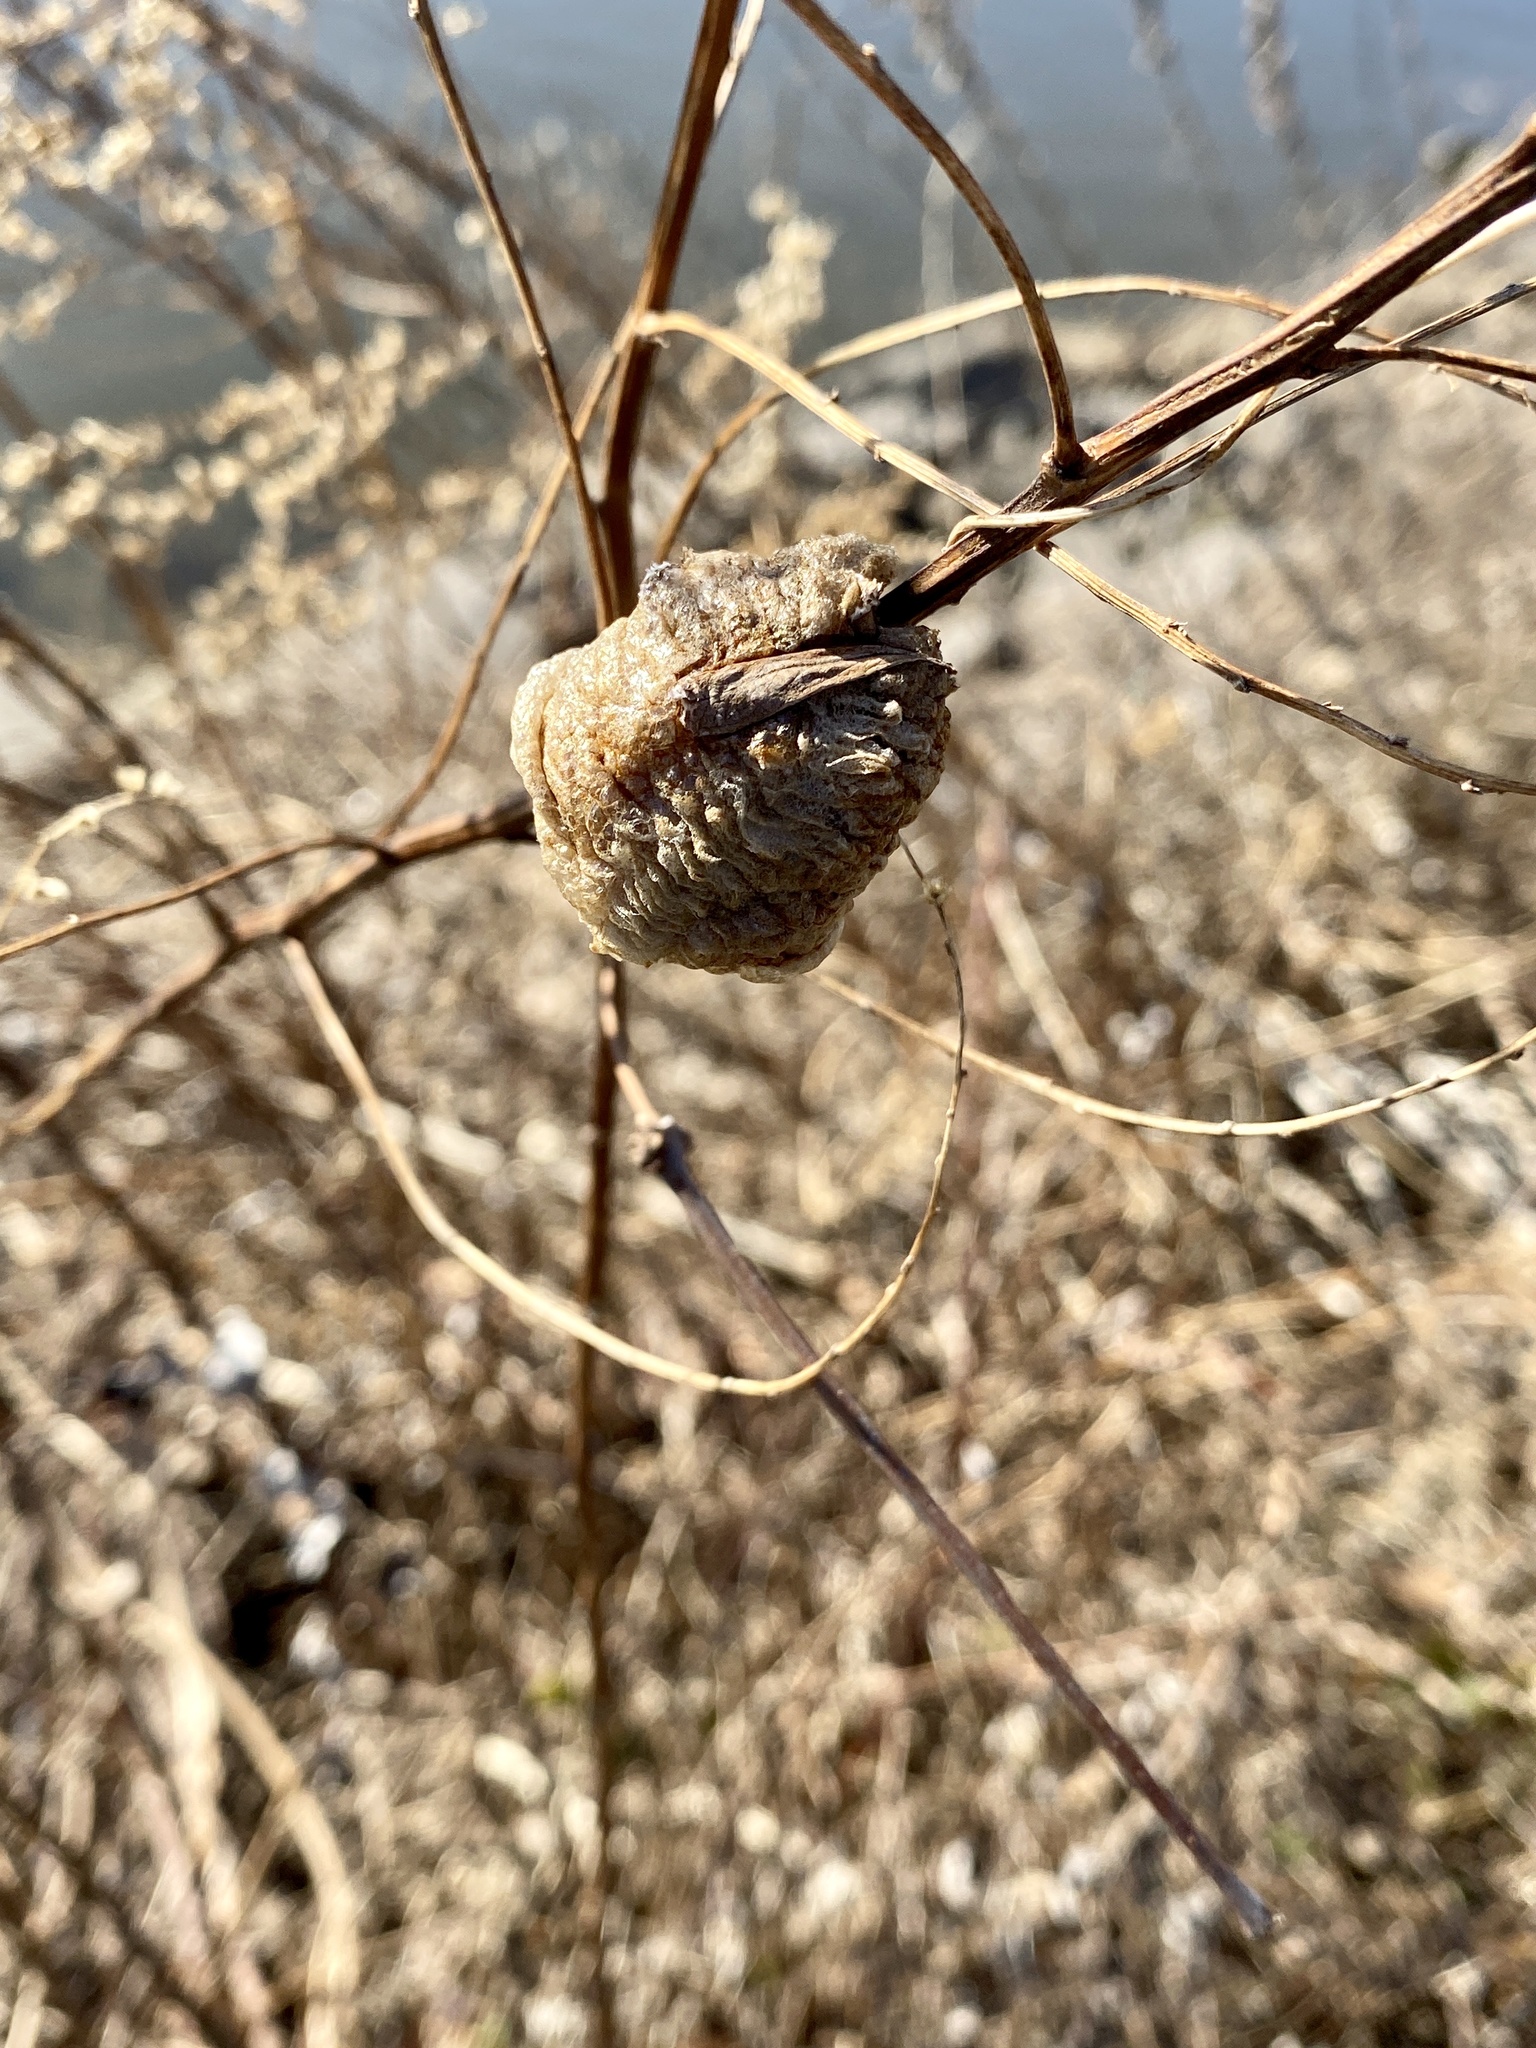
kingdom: Animalia
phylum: Arthropoda
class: Insecta
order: Mantodea
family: Mantidae
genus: Tenodera
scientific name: Tenodera sinensis
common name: Chinese mantis
